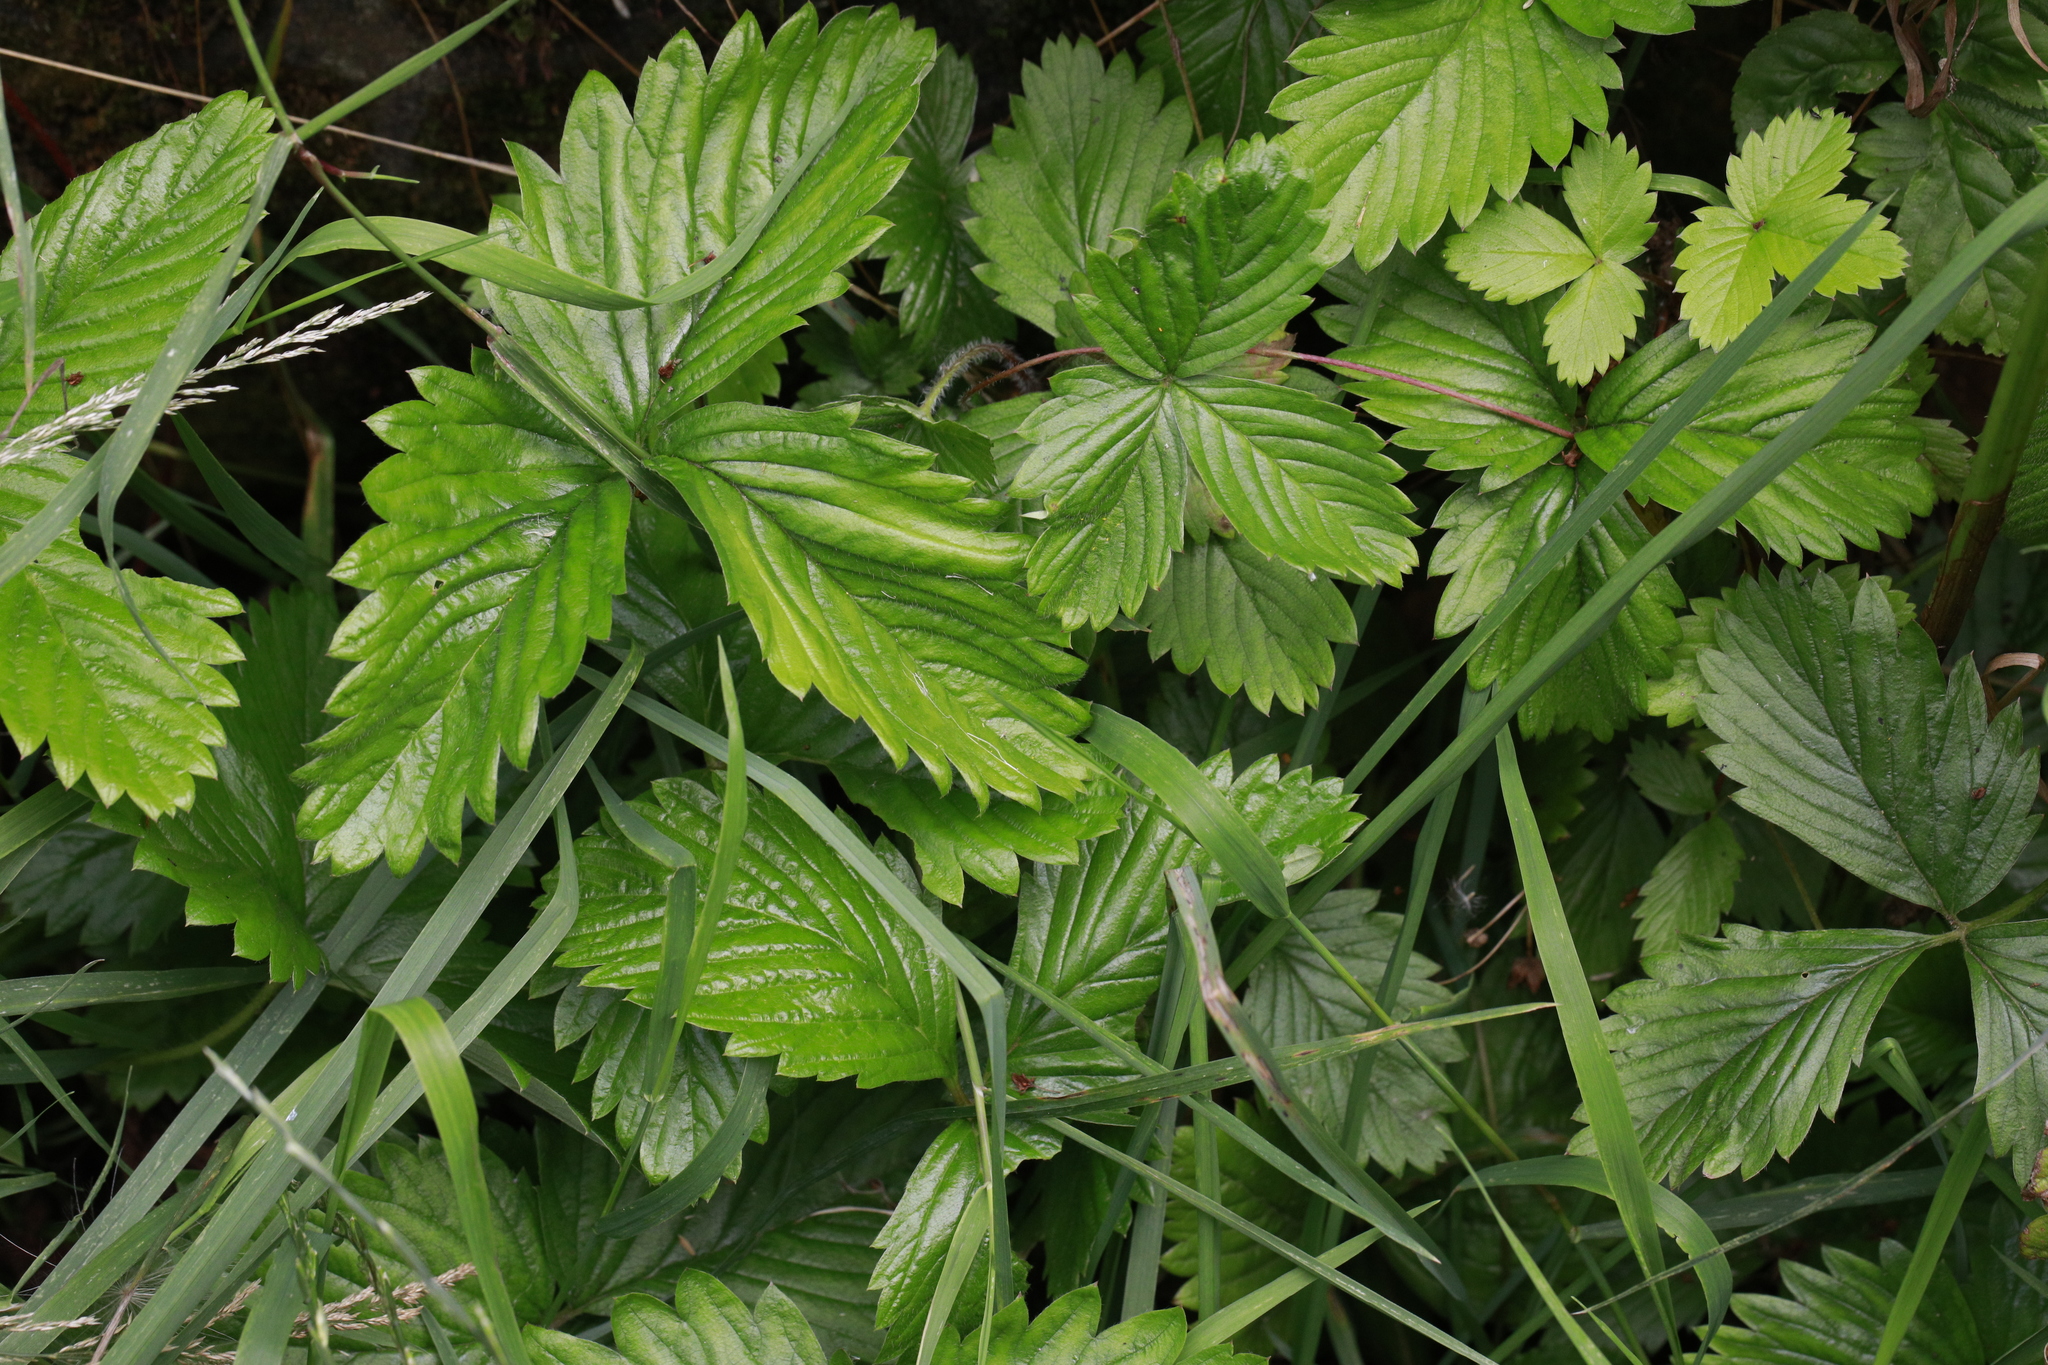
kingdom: Plantae
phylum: Tracheophyta
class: Magnoliopsida
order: Rosales
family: Rosaceae
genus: Fragaria
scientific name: Fragaria vesca
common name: Wild strawberry
